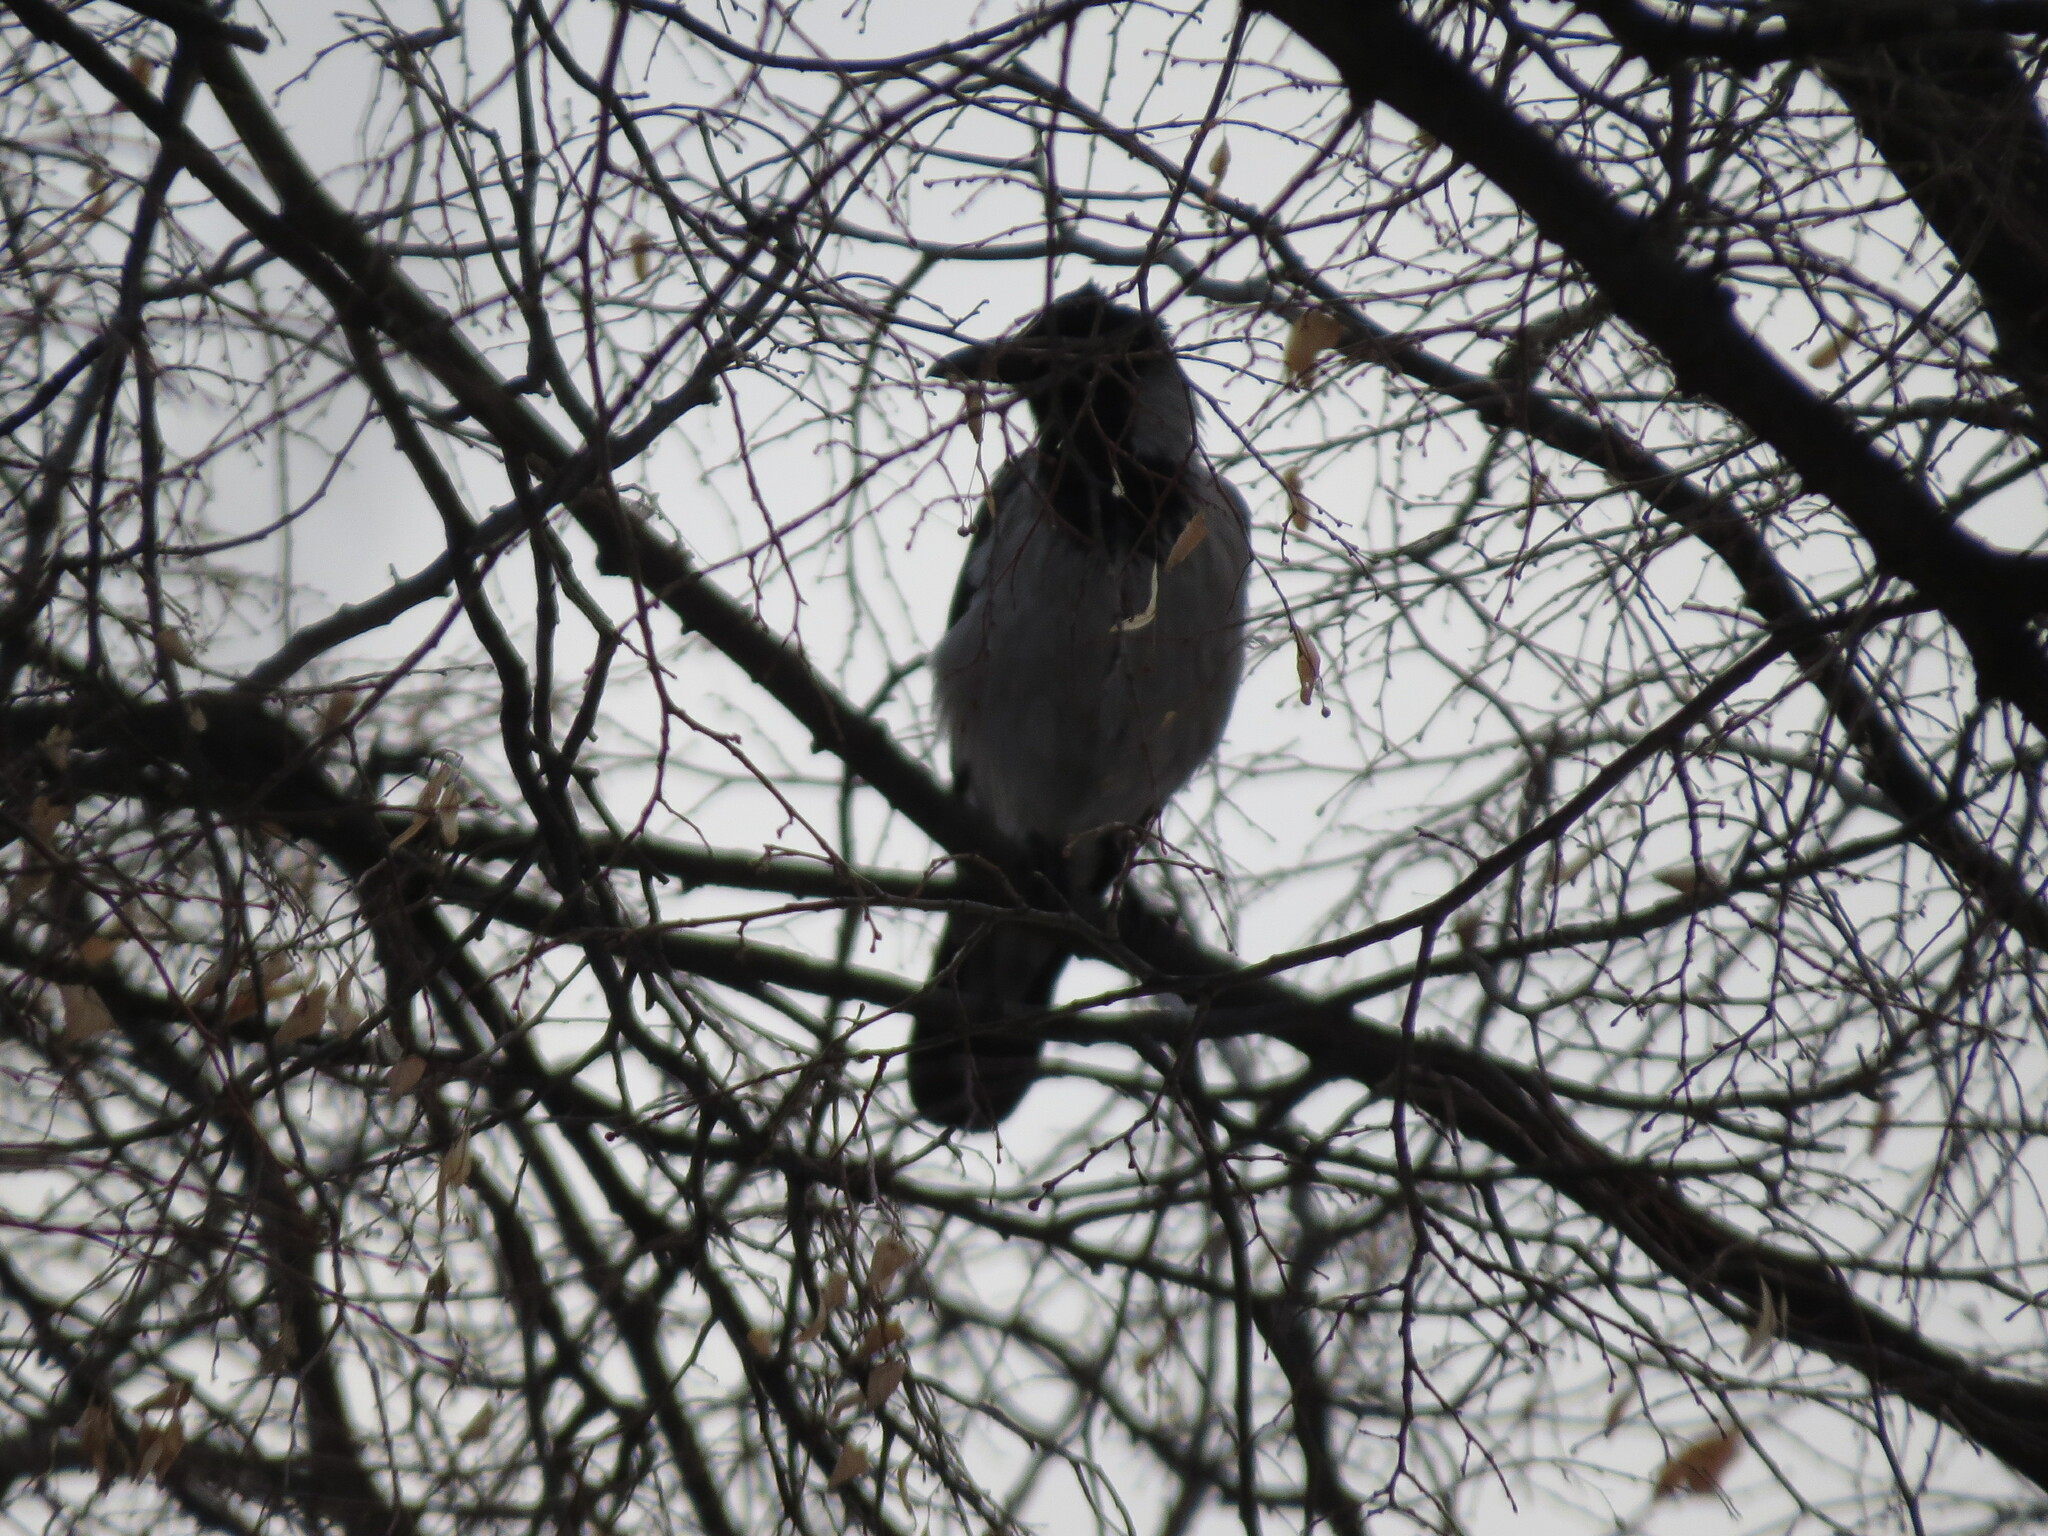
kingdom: Animalia
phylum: Chordata
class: Aves
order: Passeriformes
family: Corvidae
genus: Corvus
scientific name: Corvus cornix
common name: Hooded crow
